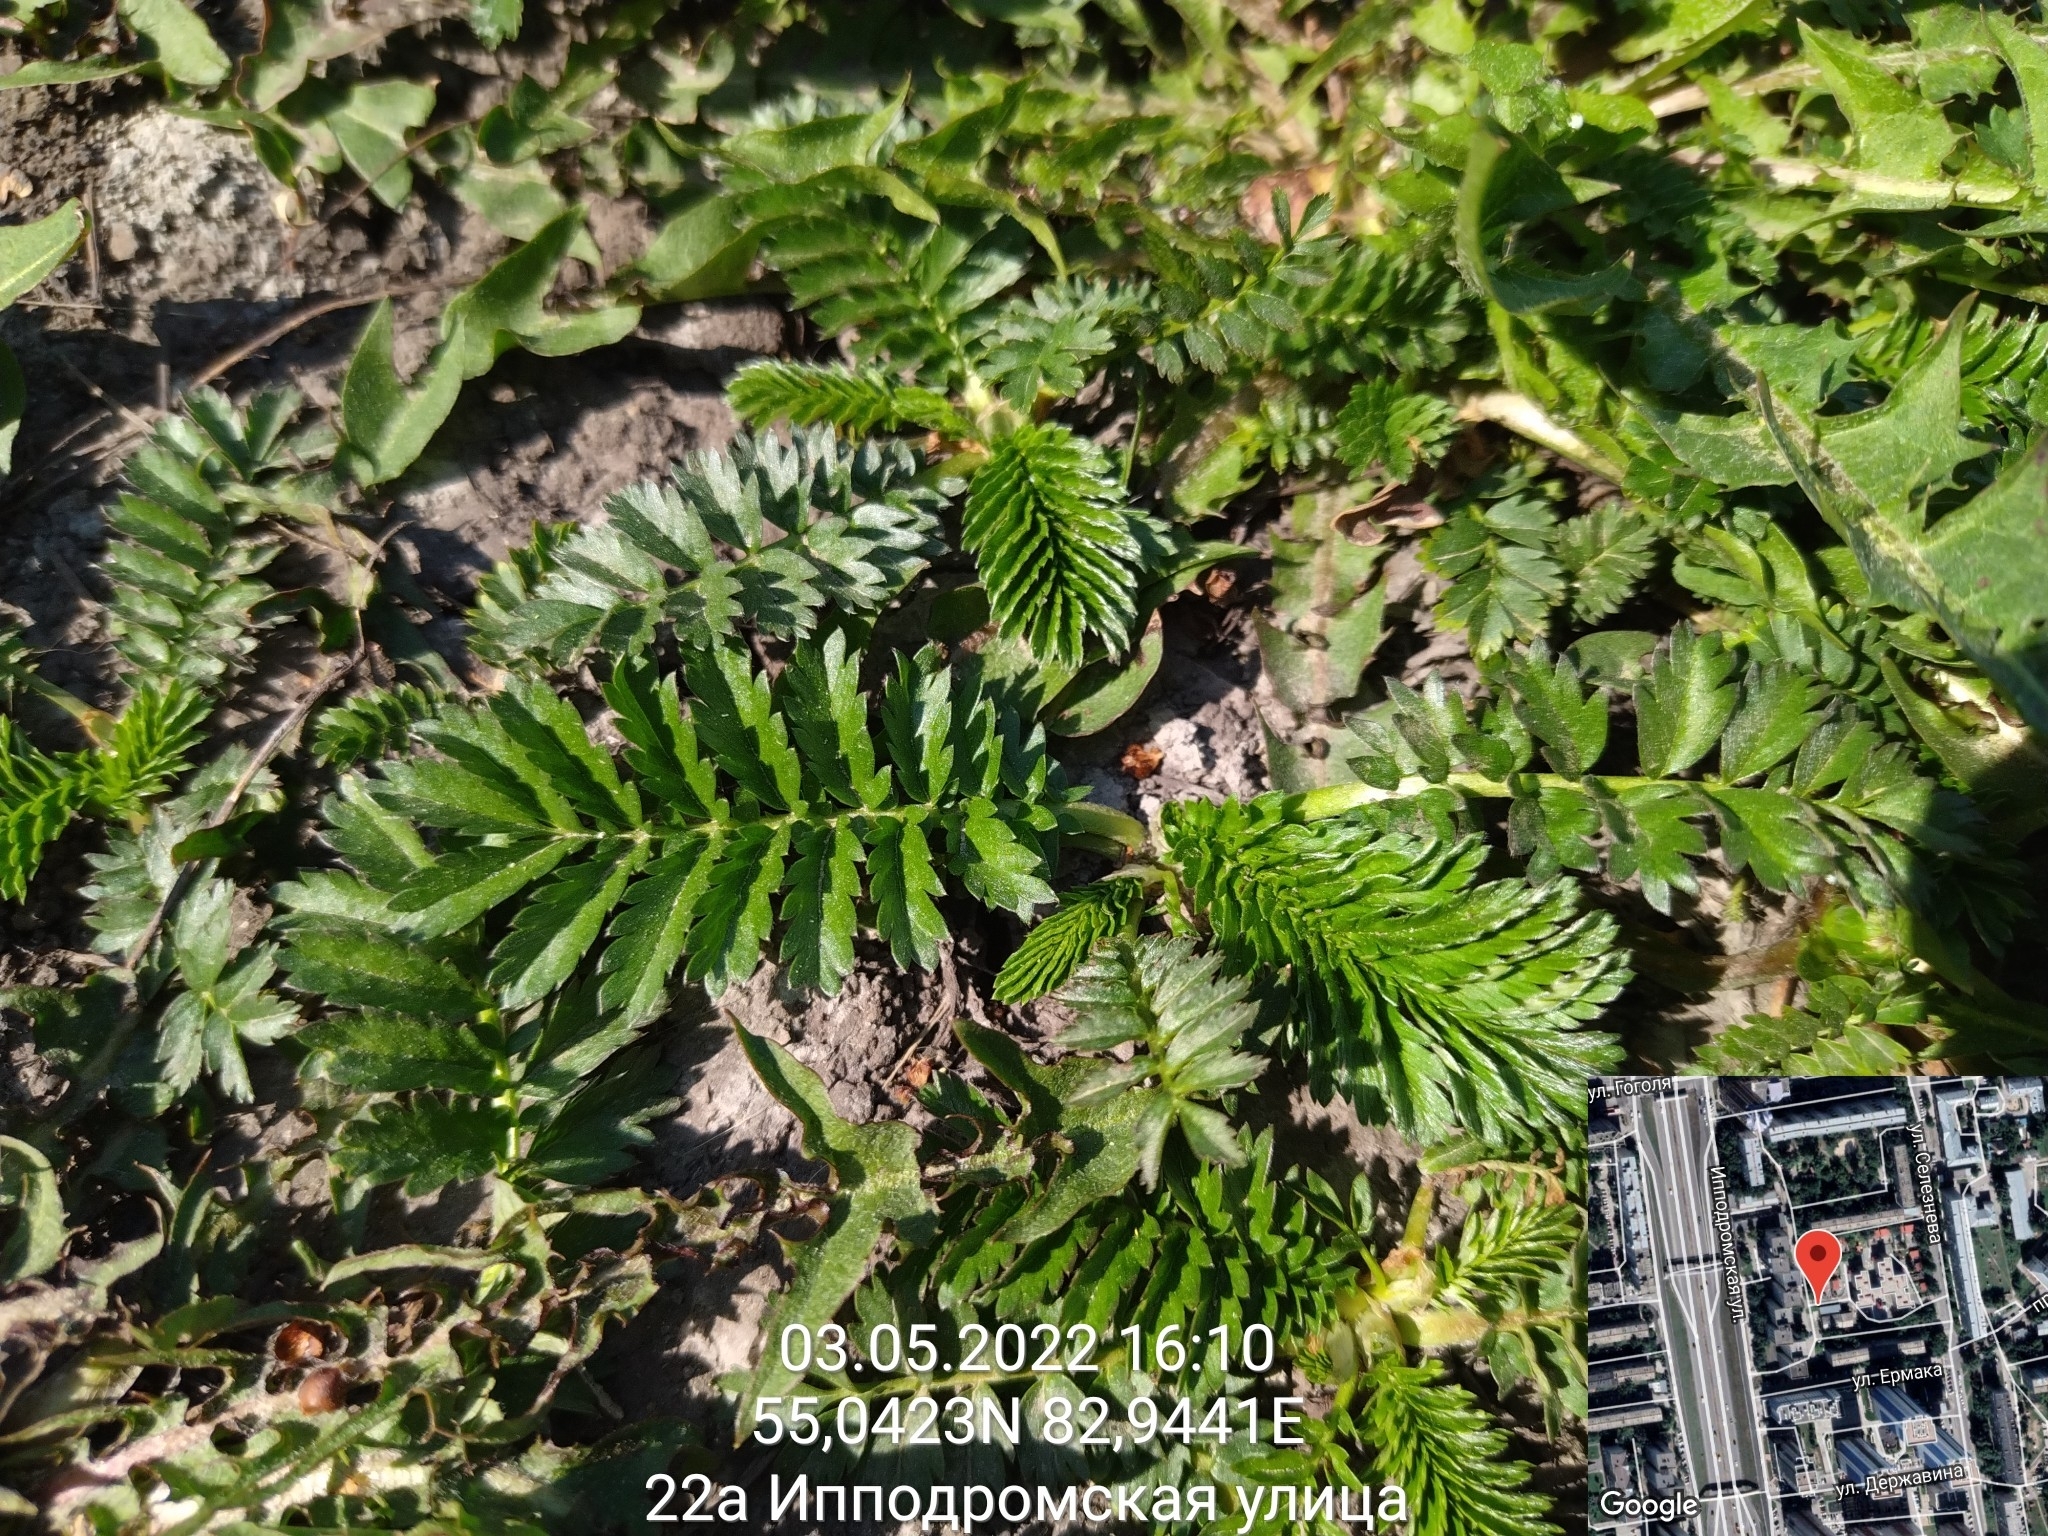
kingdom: Plantae
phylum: Tracheophyta
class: Magnoliopsida
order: Rosales
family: Rosaceae
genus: Argentina
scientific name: Argentina anserina
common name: Common silverweed
